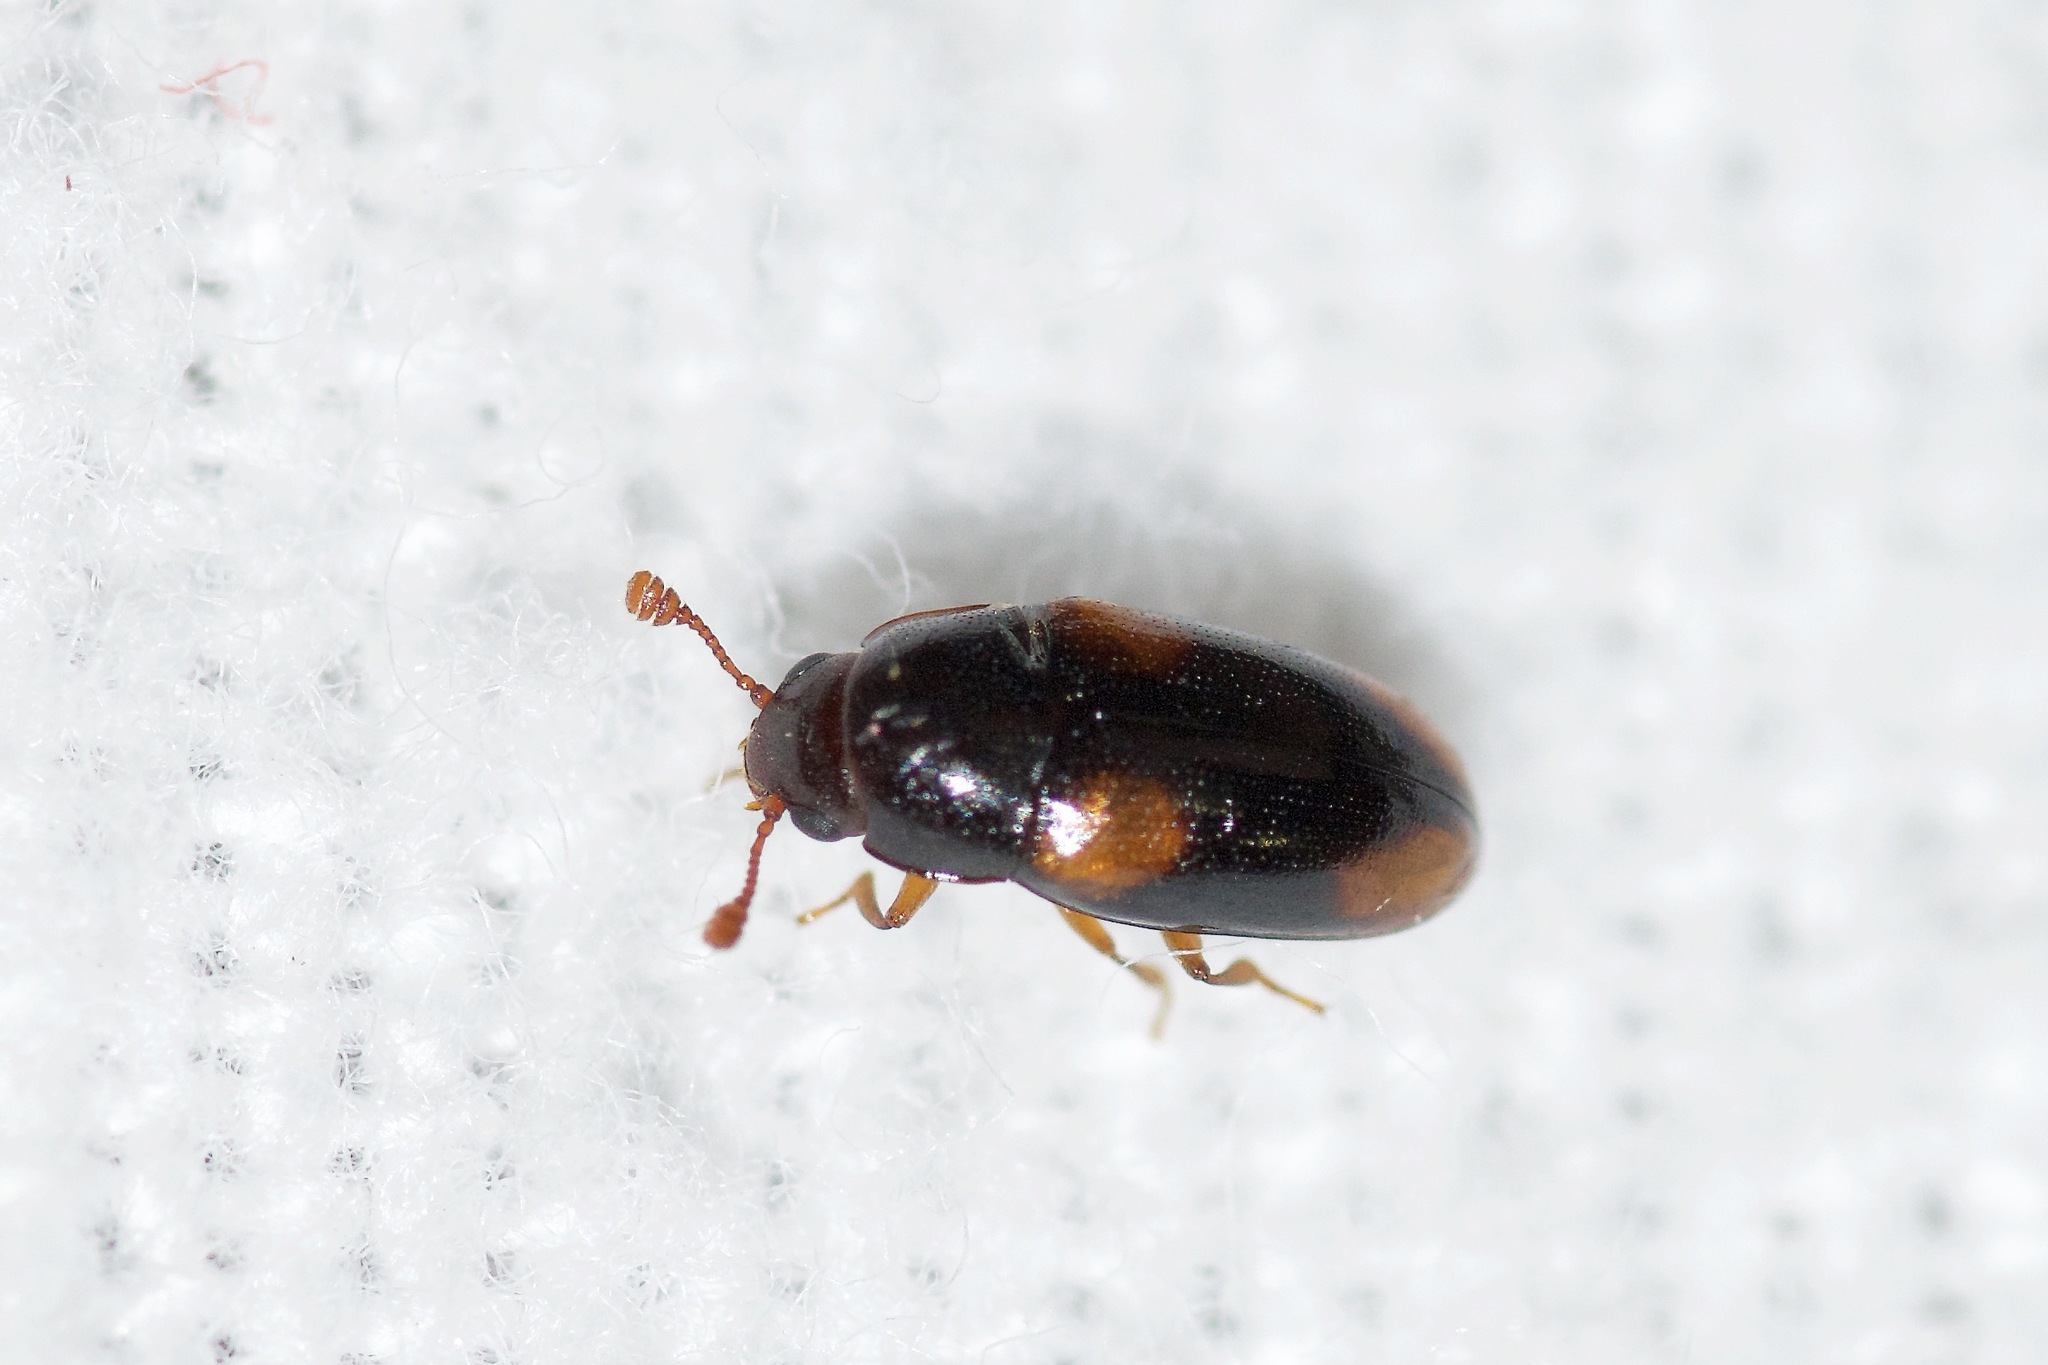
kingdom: Animalia
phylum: Arthropoda
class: Insecta
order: Coleoptera
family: Erotylidae
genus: Dacne
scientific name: Dacne quadrimaculata
